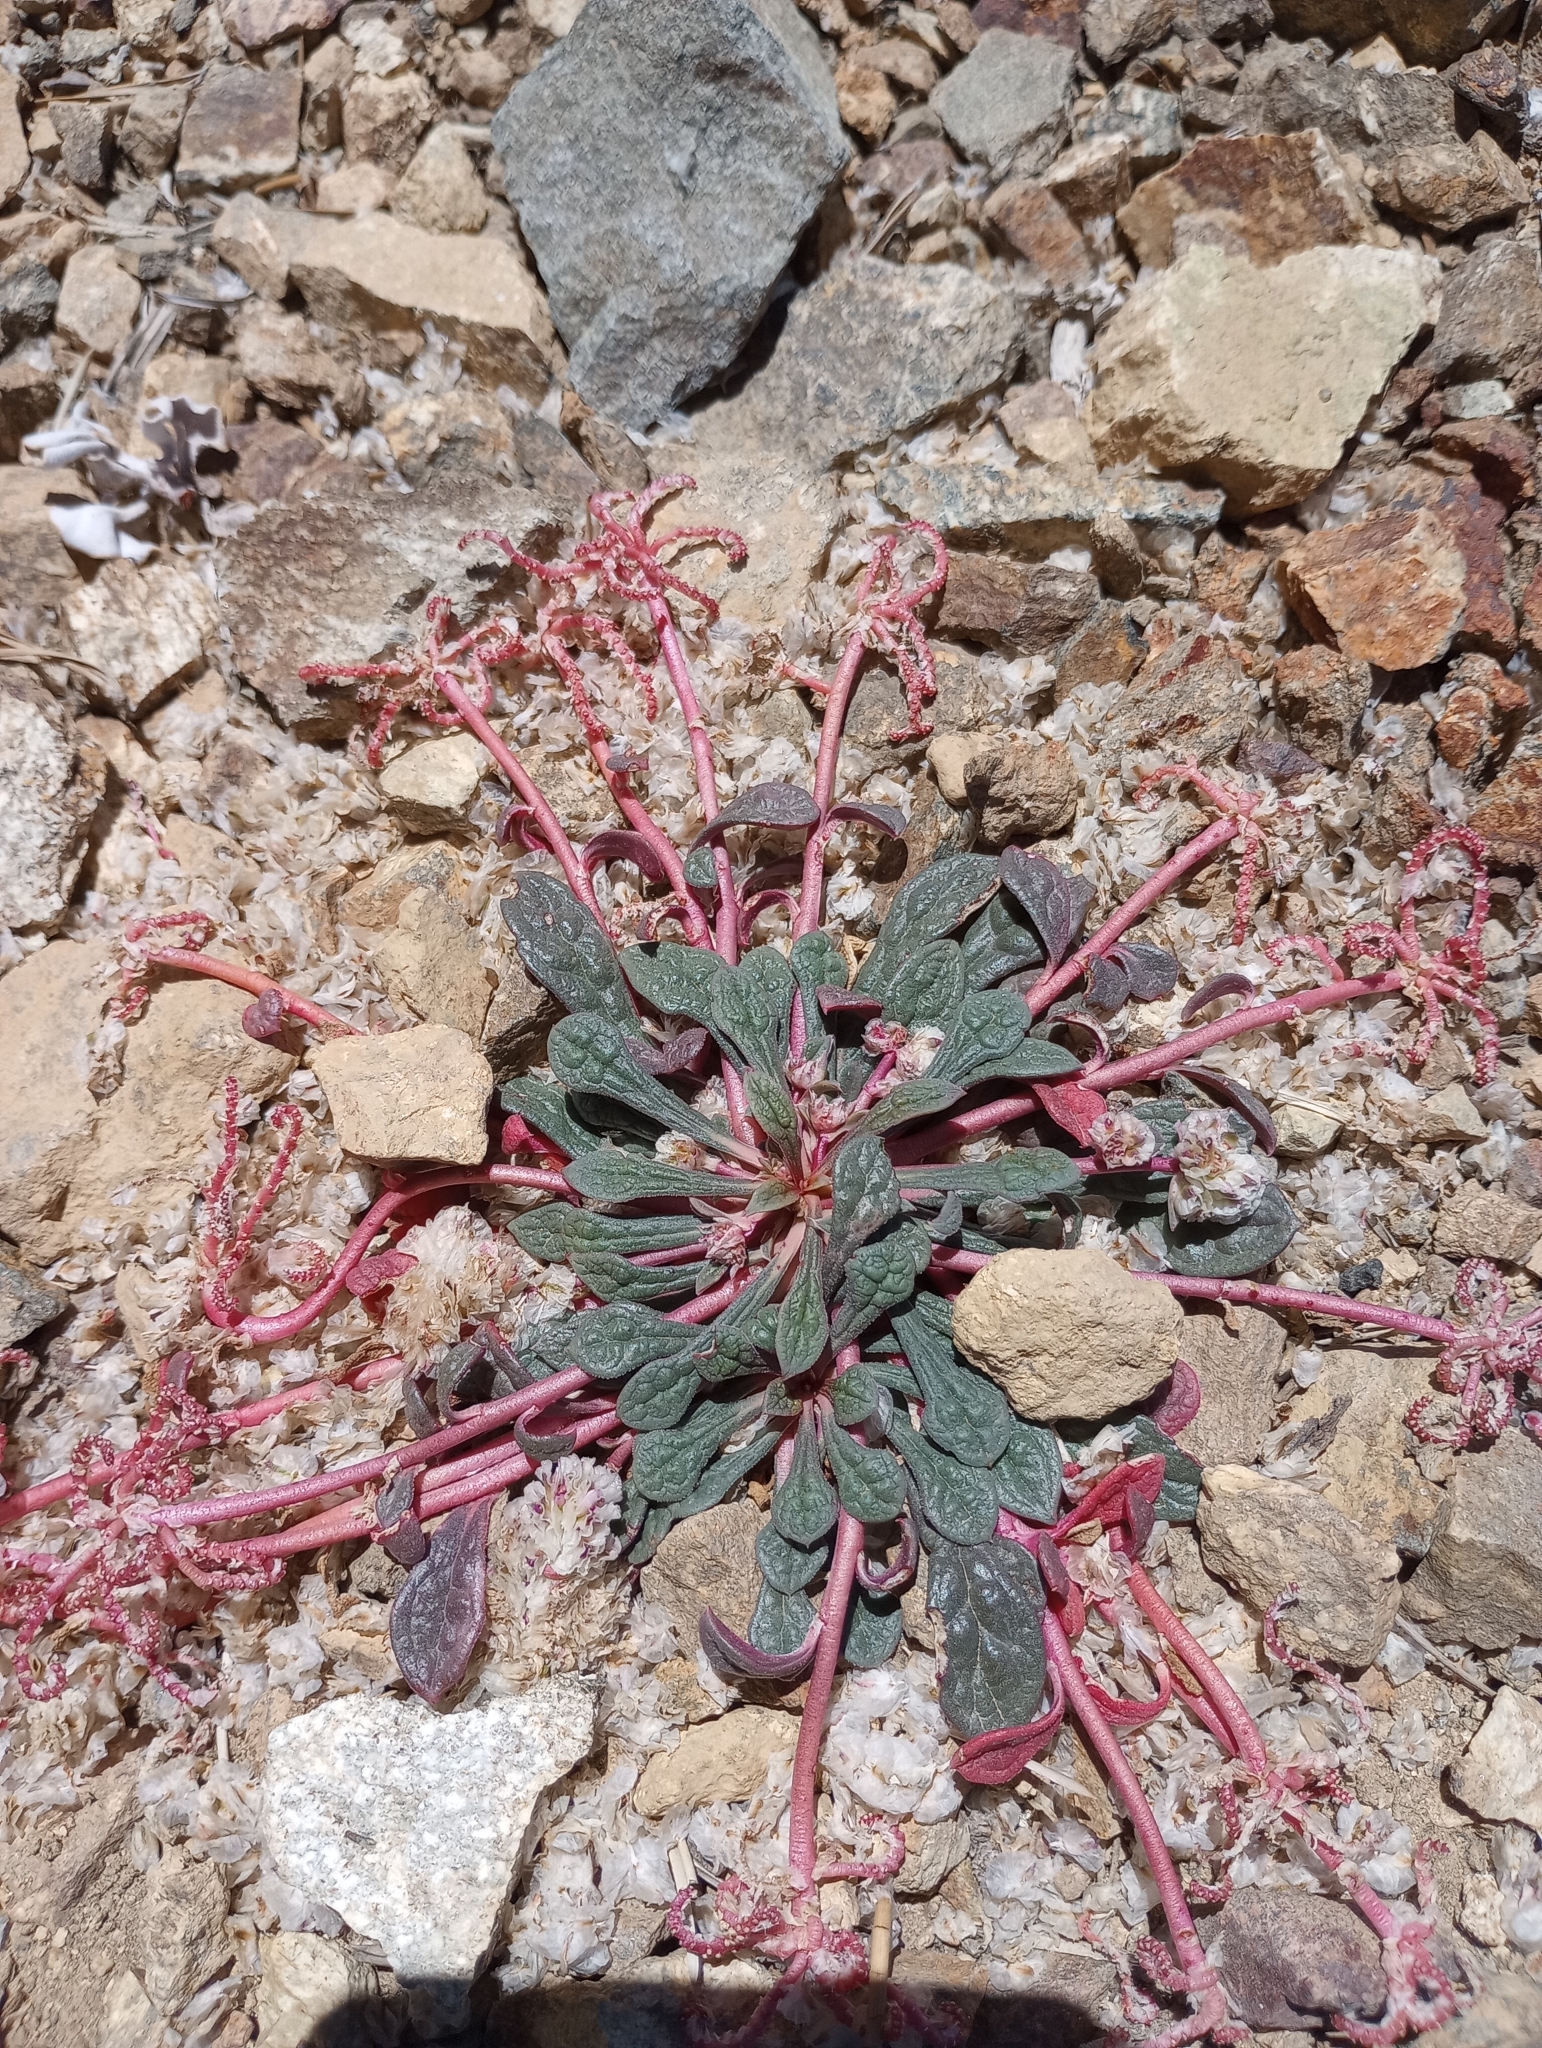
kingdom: Plantae
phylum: Tracheophyta
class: Magnoliopsida
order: Caryophyllales
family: Montiaceae
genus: Calyptridium
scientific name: Calyptridium monospermum
